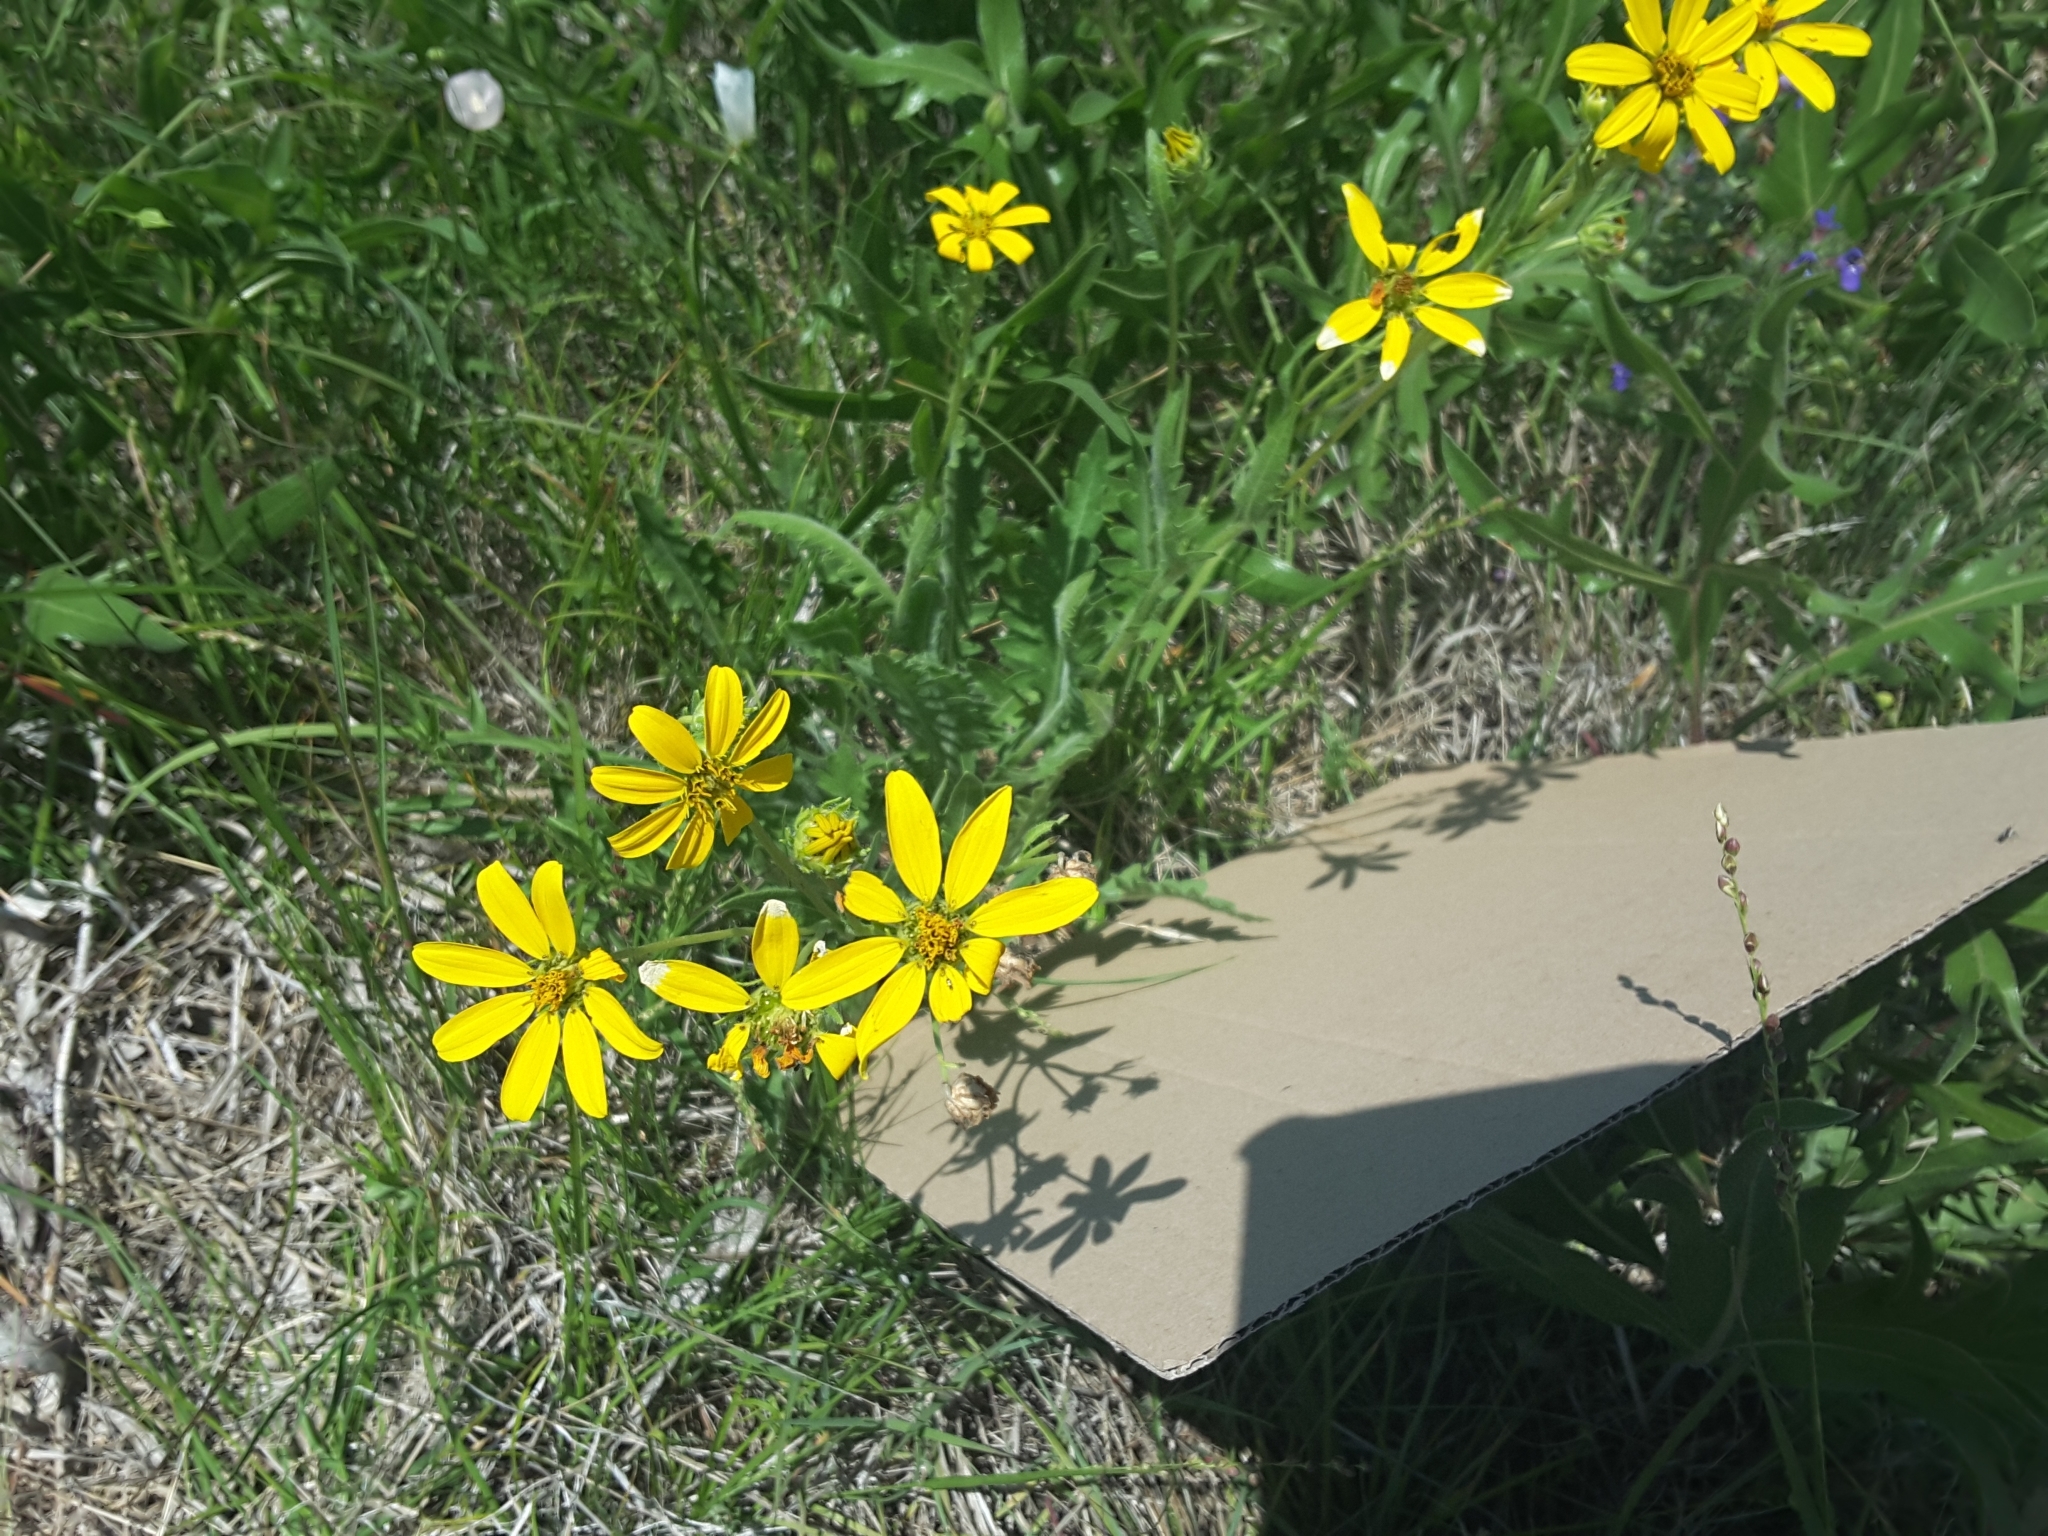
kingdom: Plantae
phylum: Tracheophyta
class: Magnoliopsida
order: Asterales
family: Asteraceae
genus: Engelmannia
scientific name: Engelmannia peristenia
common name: Engelmann's daisy
